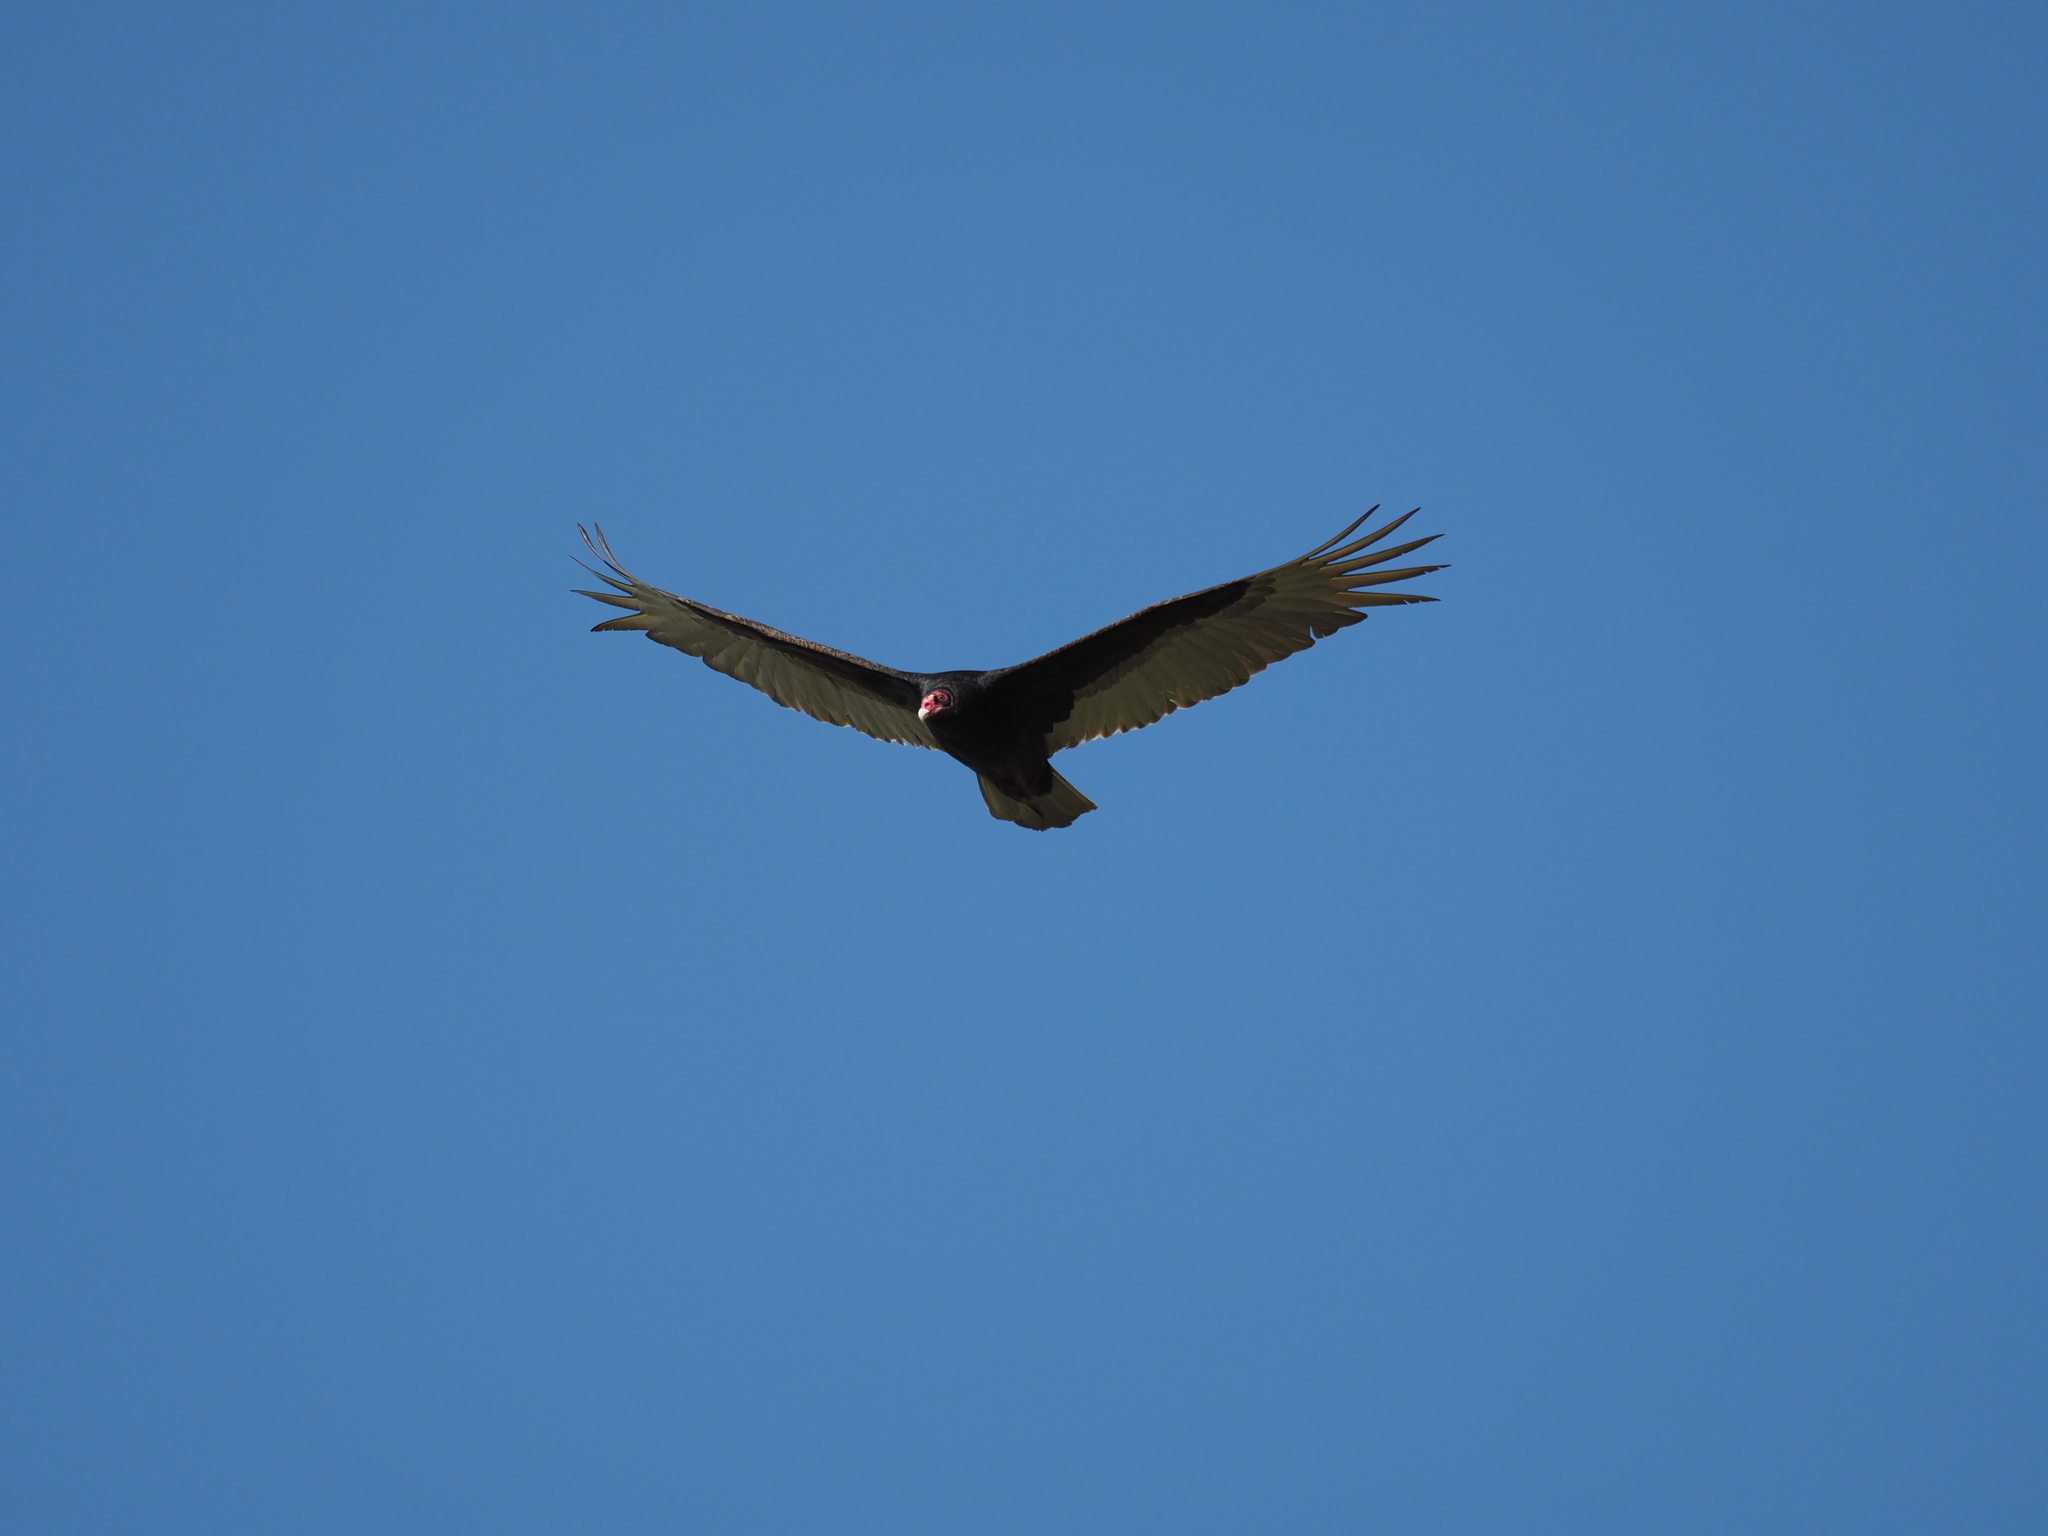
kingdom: Animalia
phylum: Chordata
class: Aves
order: Accipitriformes
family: Cathartidae
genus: Cathartes
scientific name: Cathartes aura
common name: Turkey vulture
